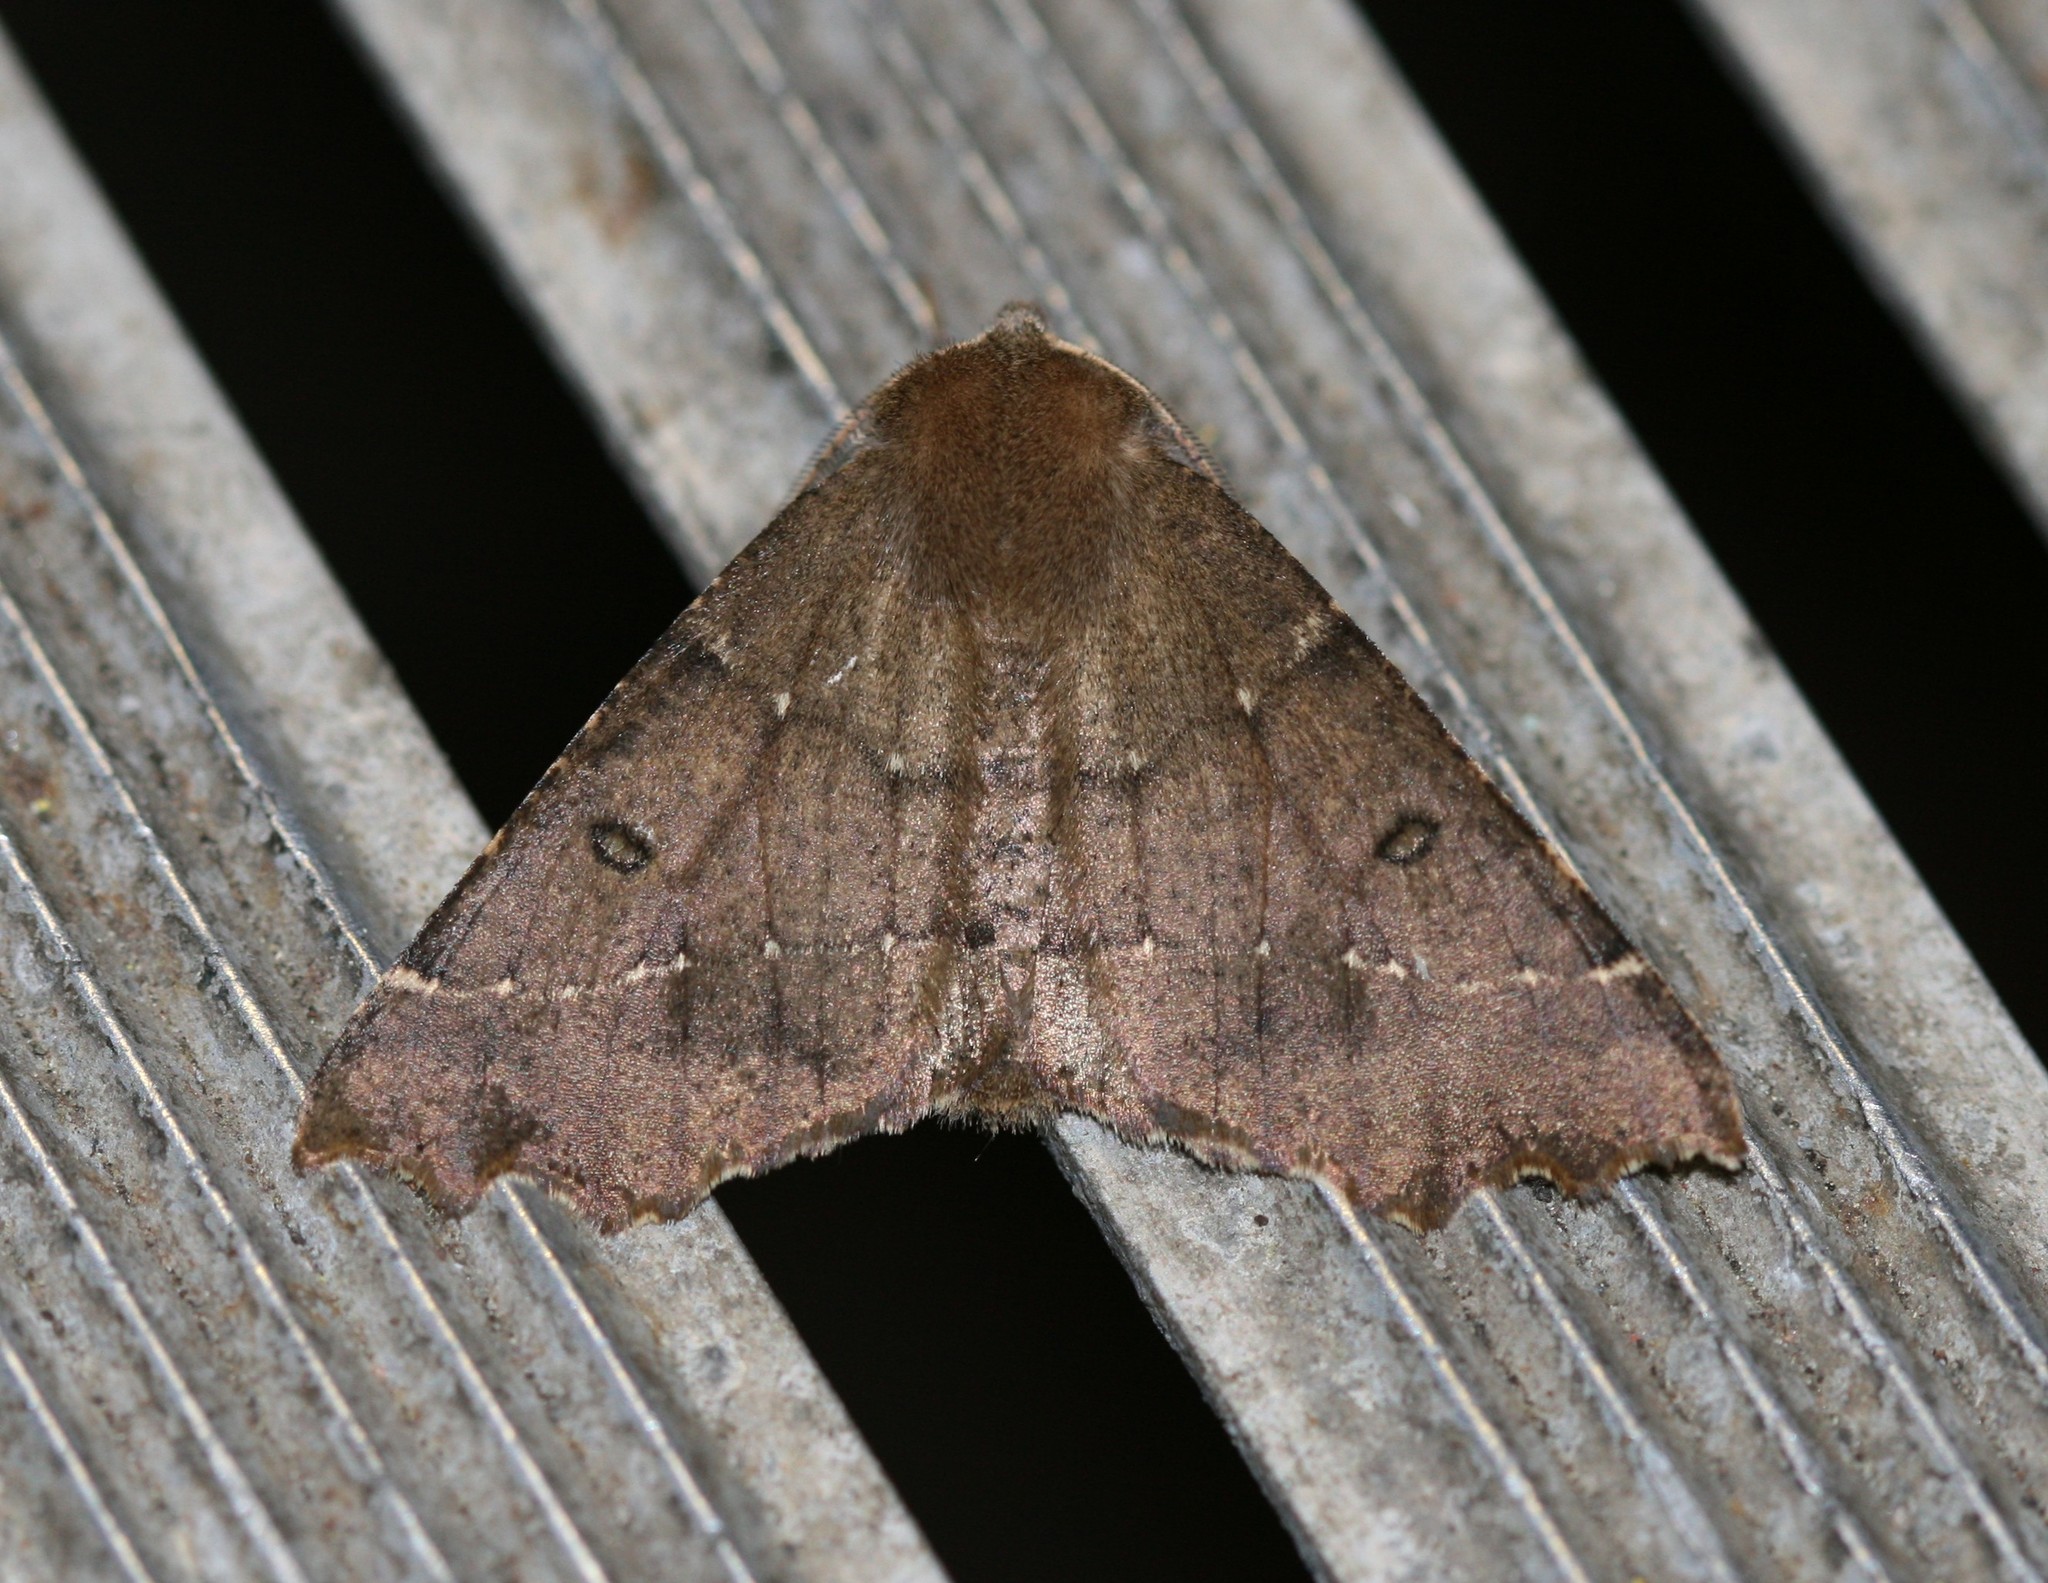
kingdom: Animalia
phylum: Arthropoda
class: Insecta
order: Lepidoptera
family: Geometridae
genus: Odontopera
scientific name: Odontopera bidentata
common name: Scalloped hazel
